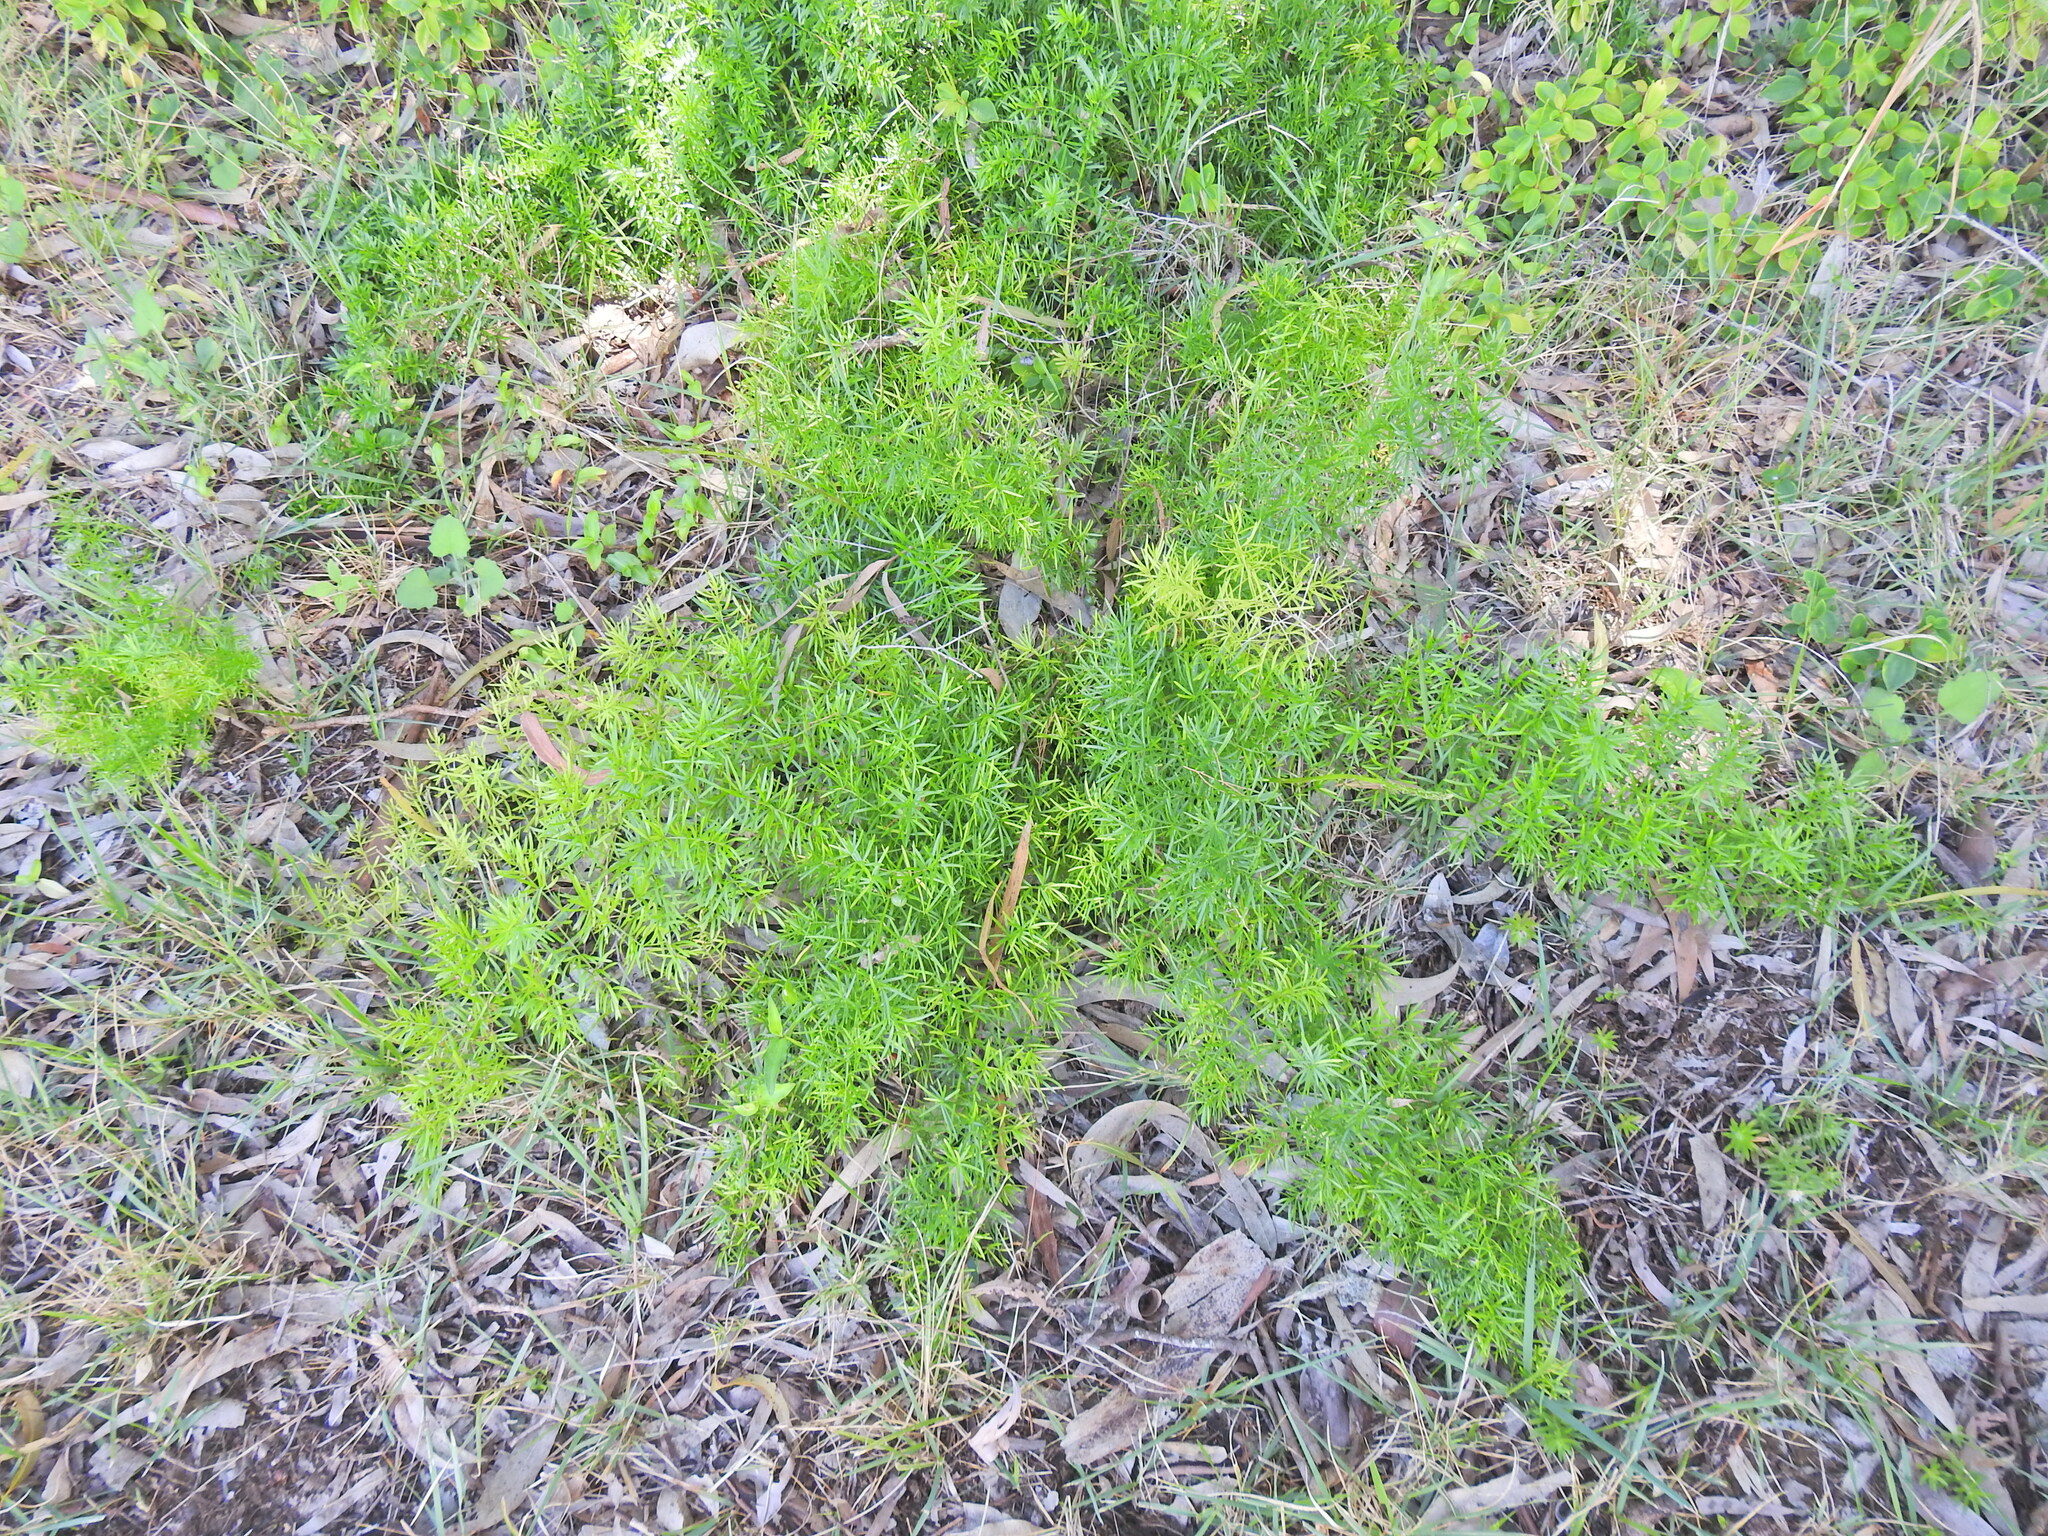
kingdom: Plantae
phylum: Tracheophyta
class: Liliopsida
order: Asparagales
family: Asparagaceae
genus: Asparagus
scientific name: Asparagus aethiopicus
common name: Sprenger's asparagus fern
